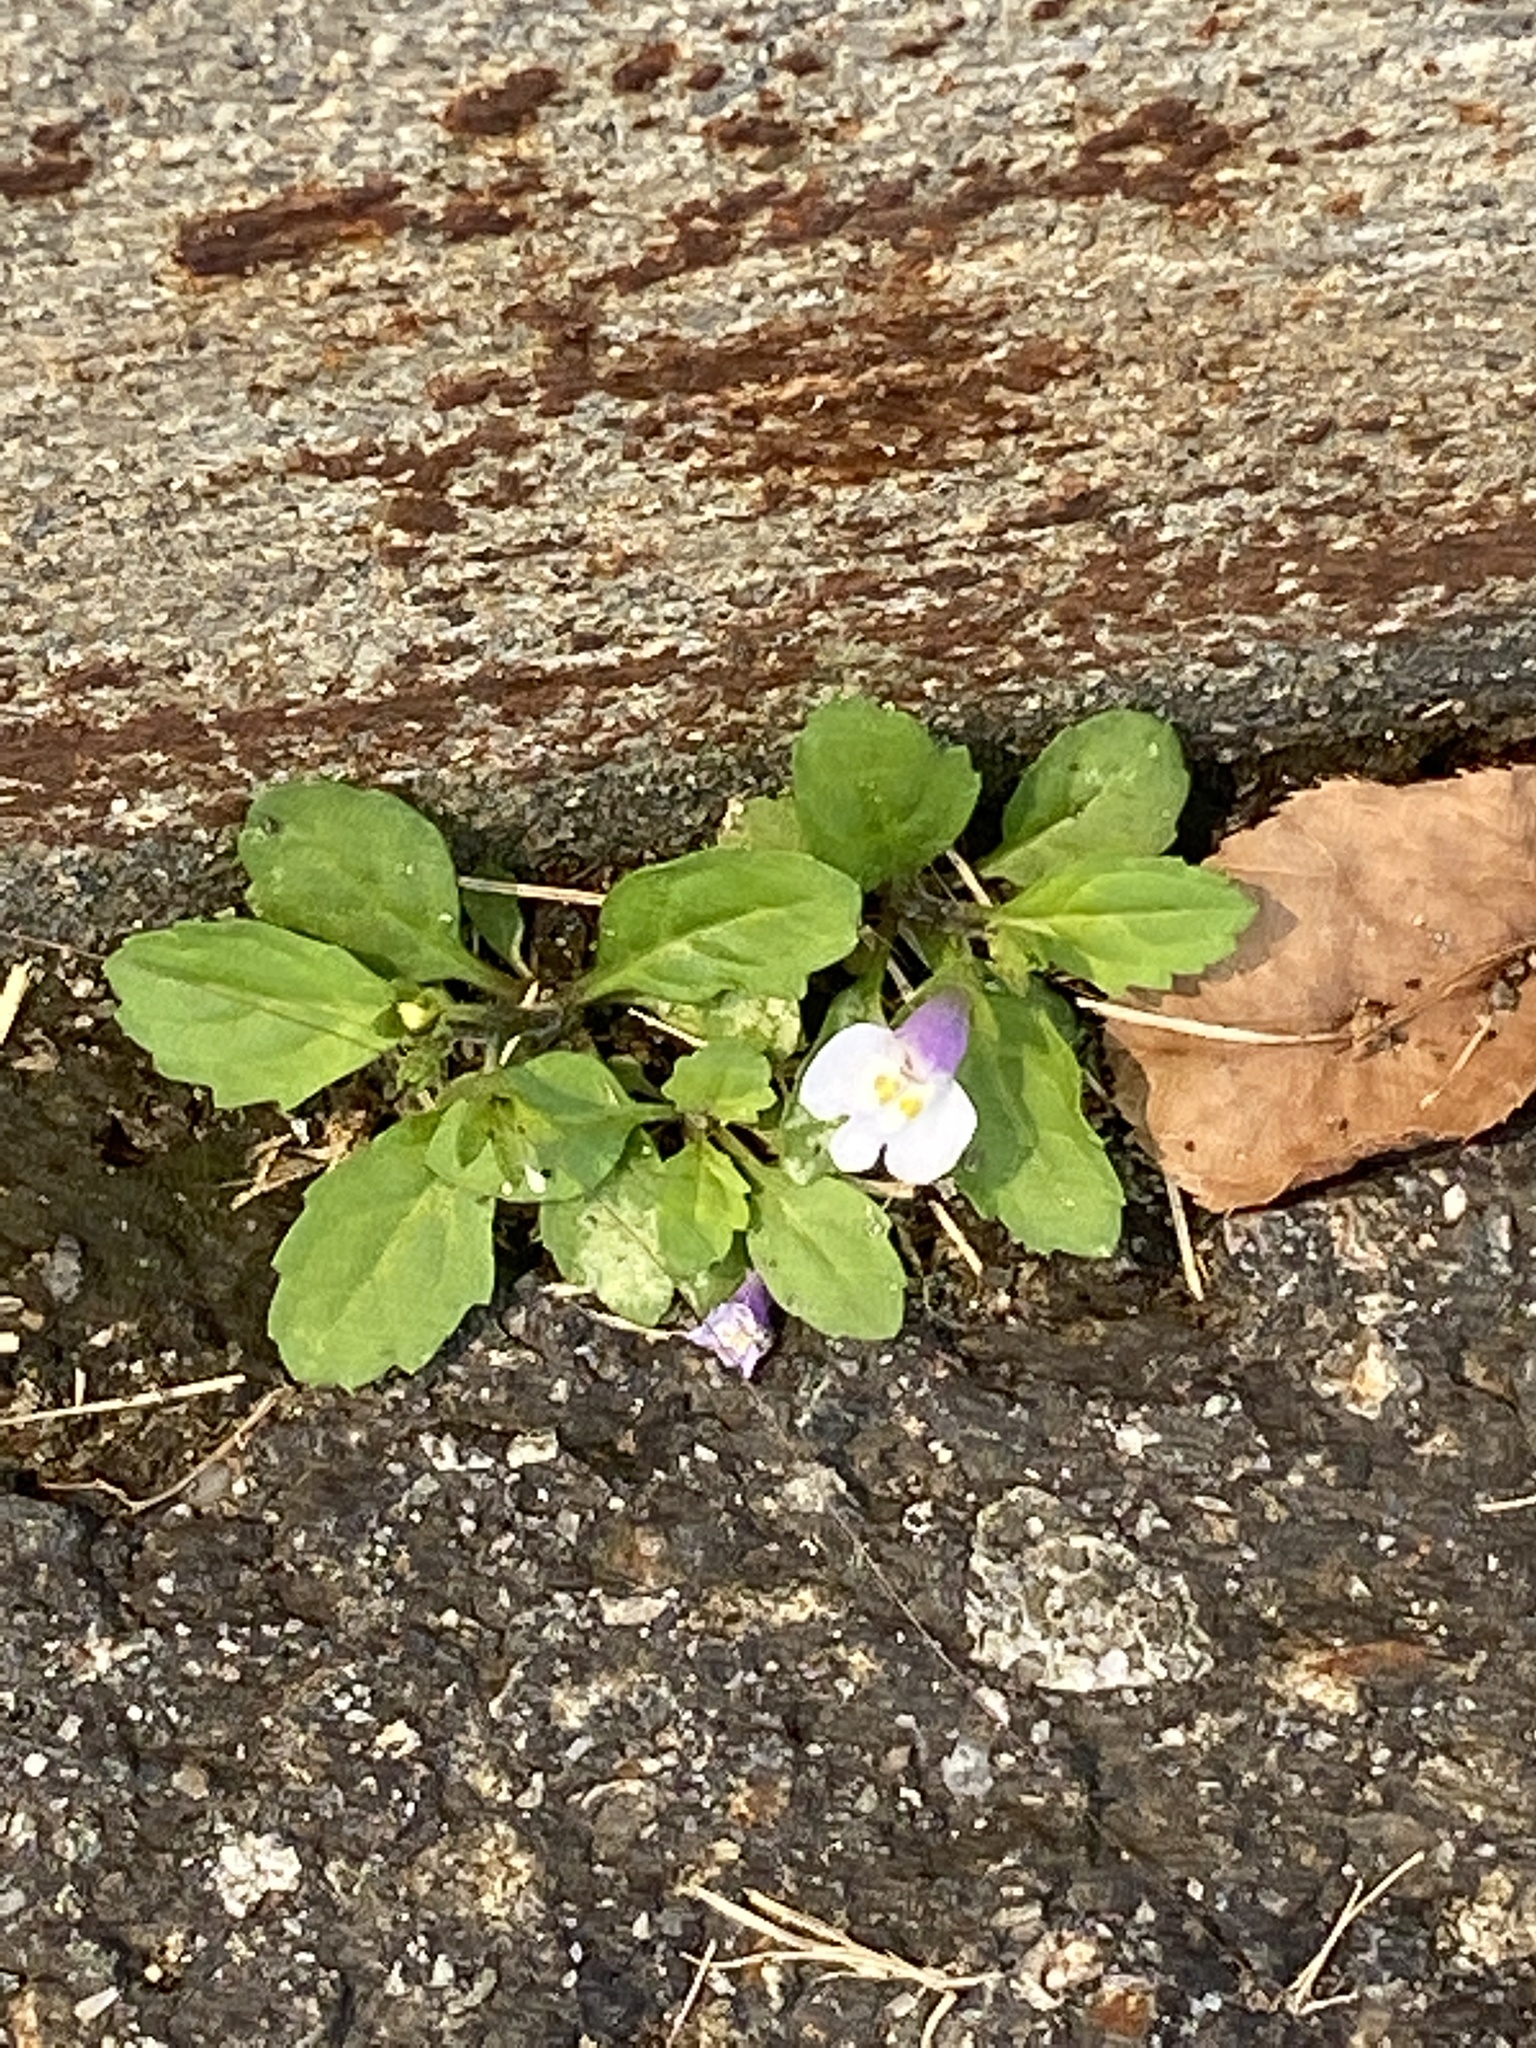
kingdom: Plantae
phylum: Tracheophyta
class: Magnoliopsida
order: Lamiales
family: Mazaceae
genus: Mazus
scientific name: Mazus pumilus
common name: Japanese mazus
